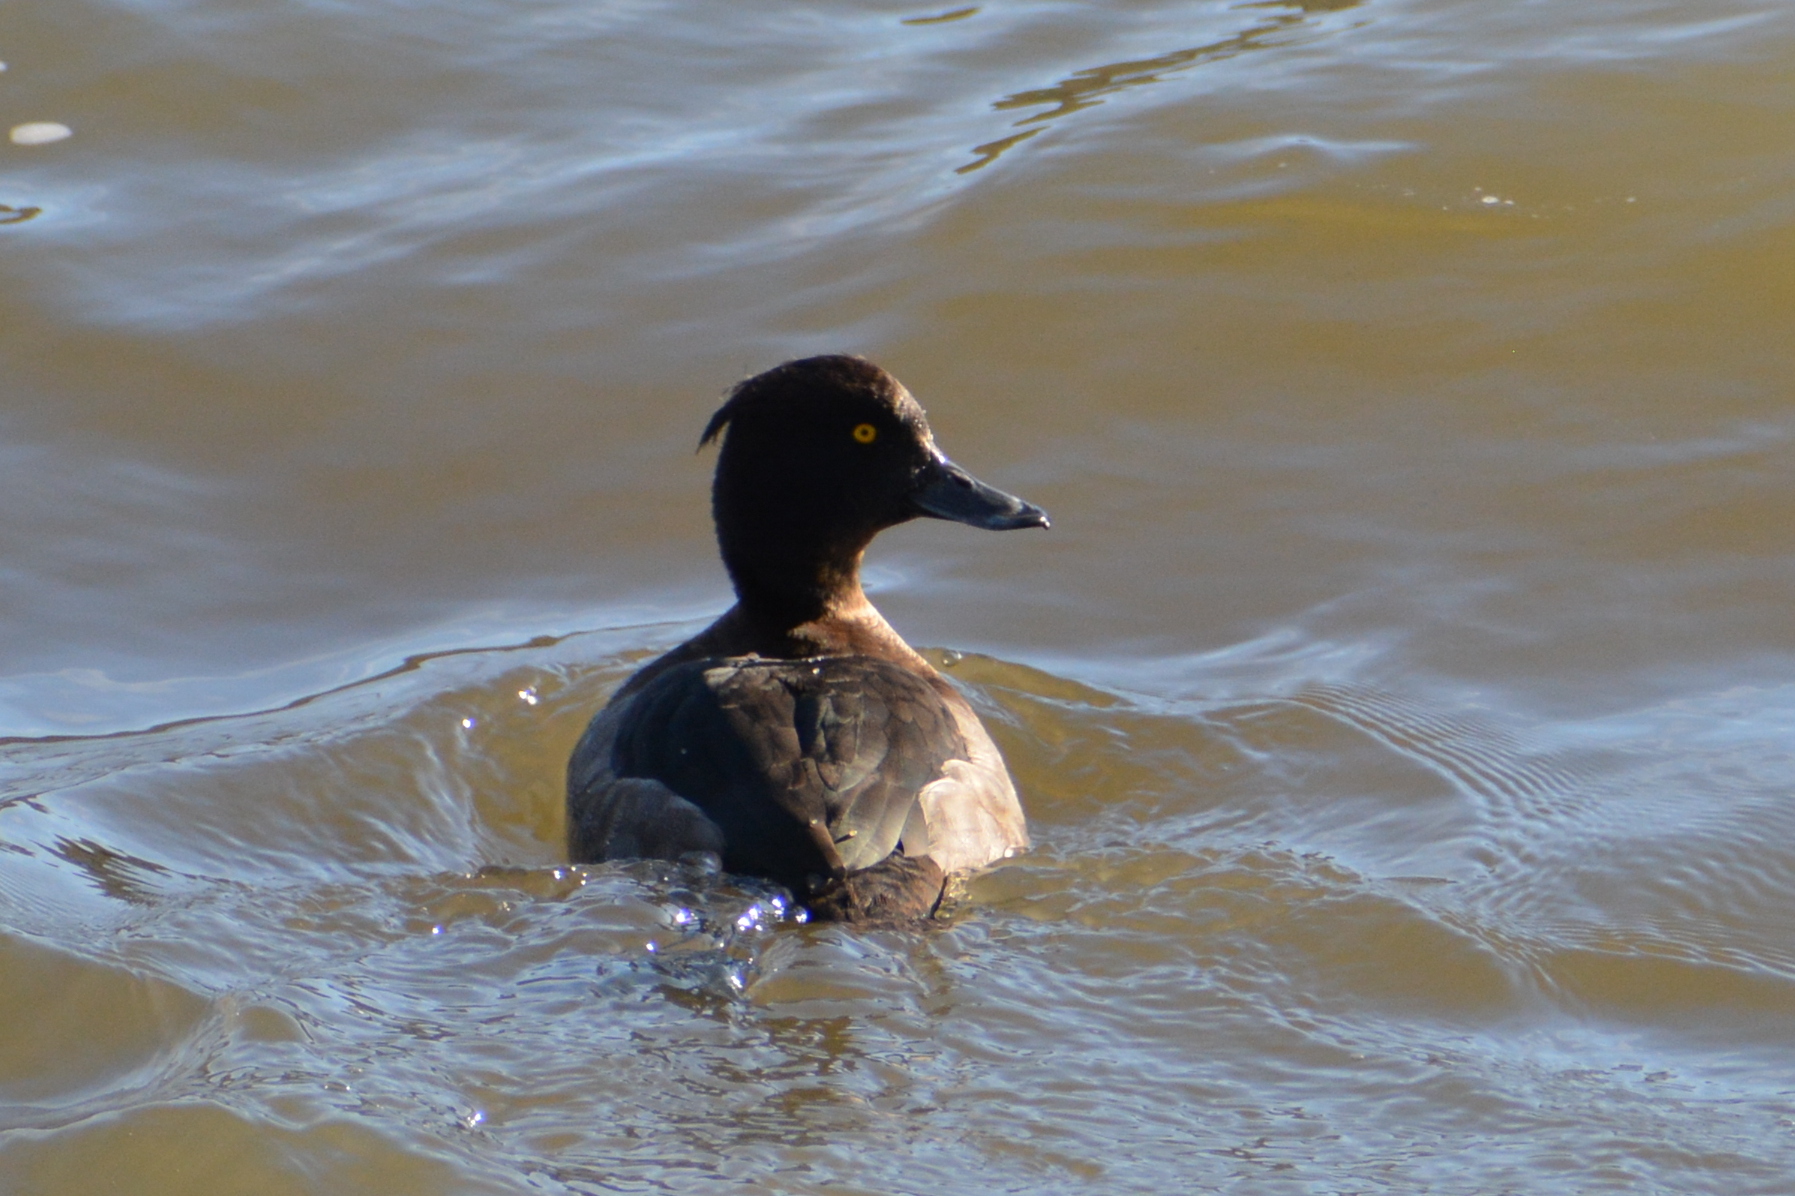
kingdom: Animalia
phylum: Chordata
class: Aves
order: Anseriformes
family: Anatidae
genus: Aythya
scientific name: Aythya fuligula
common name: Tufted duck
